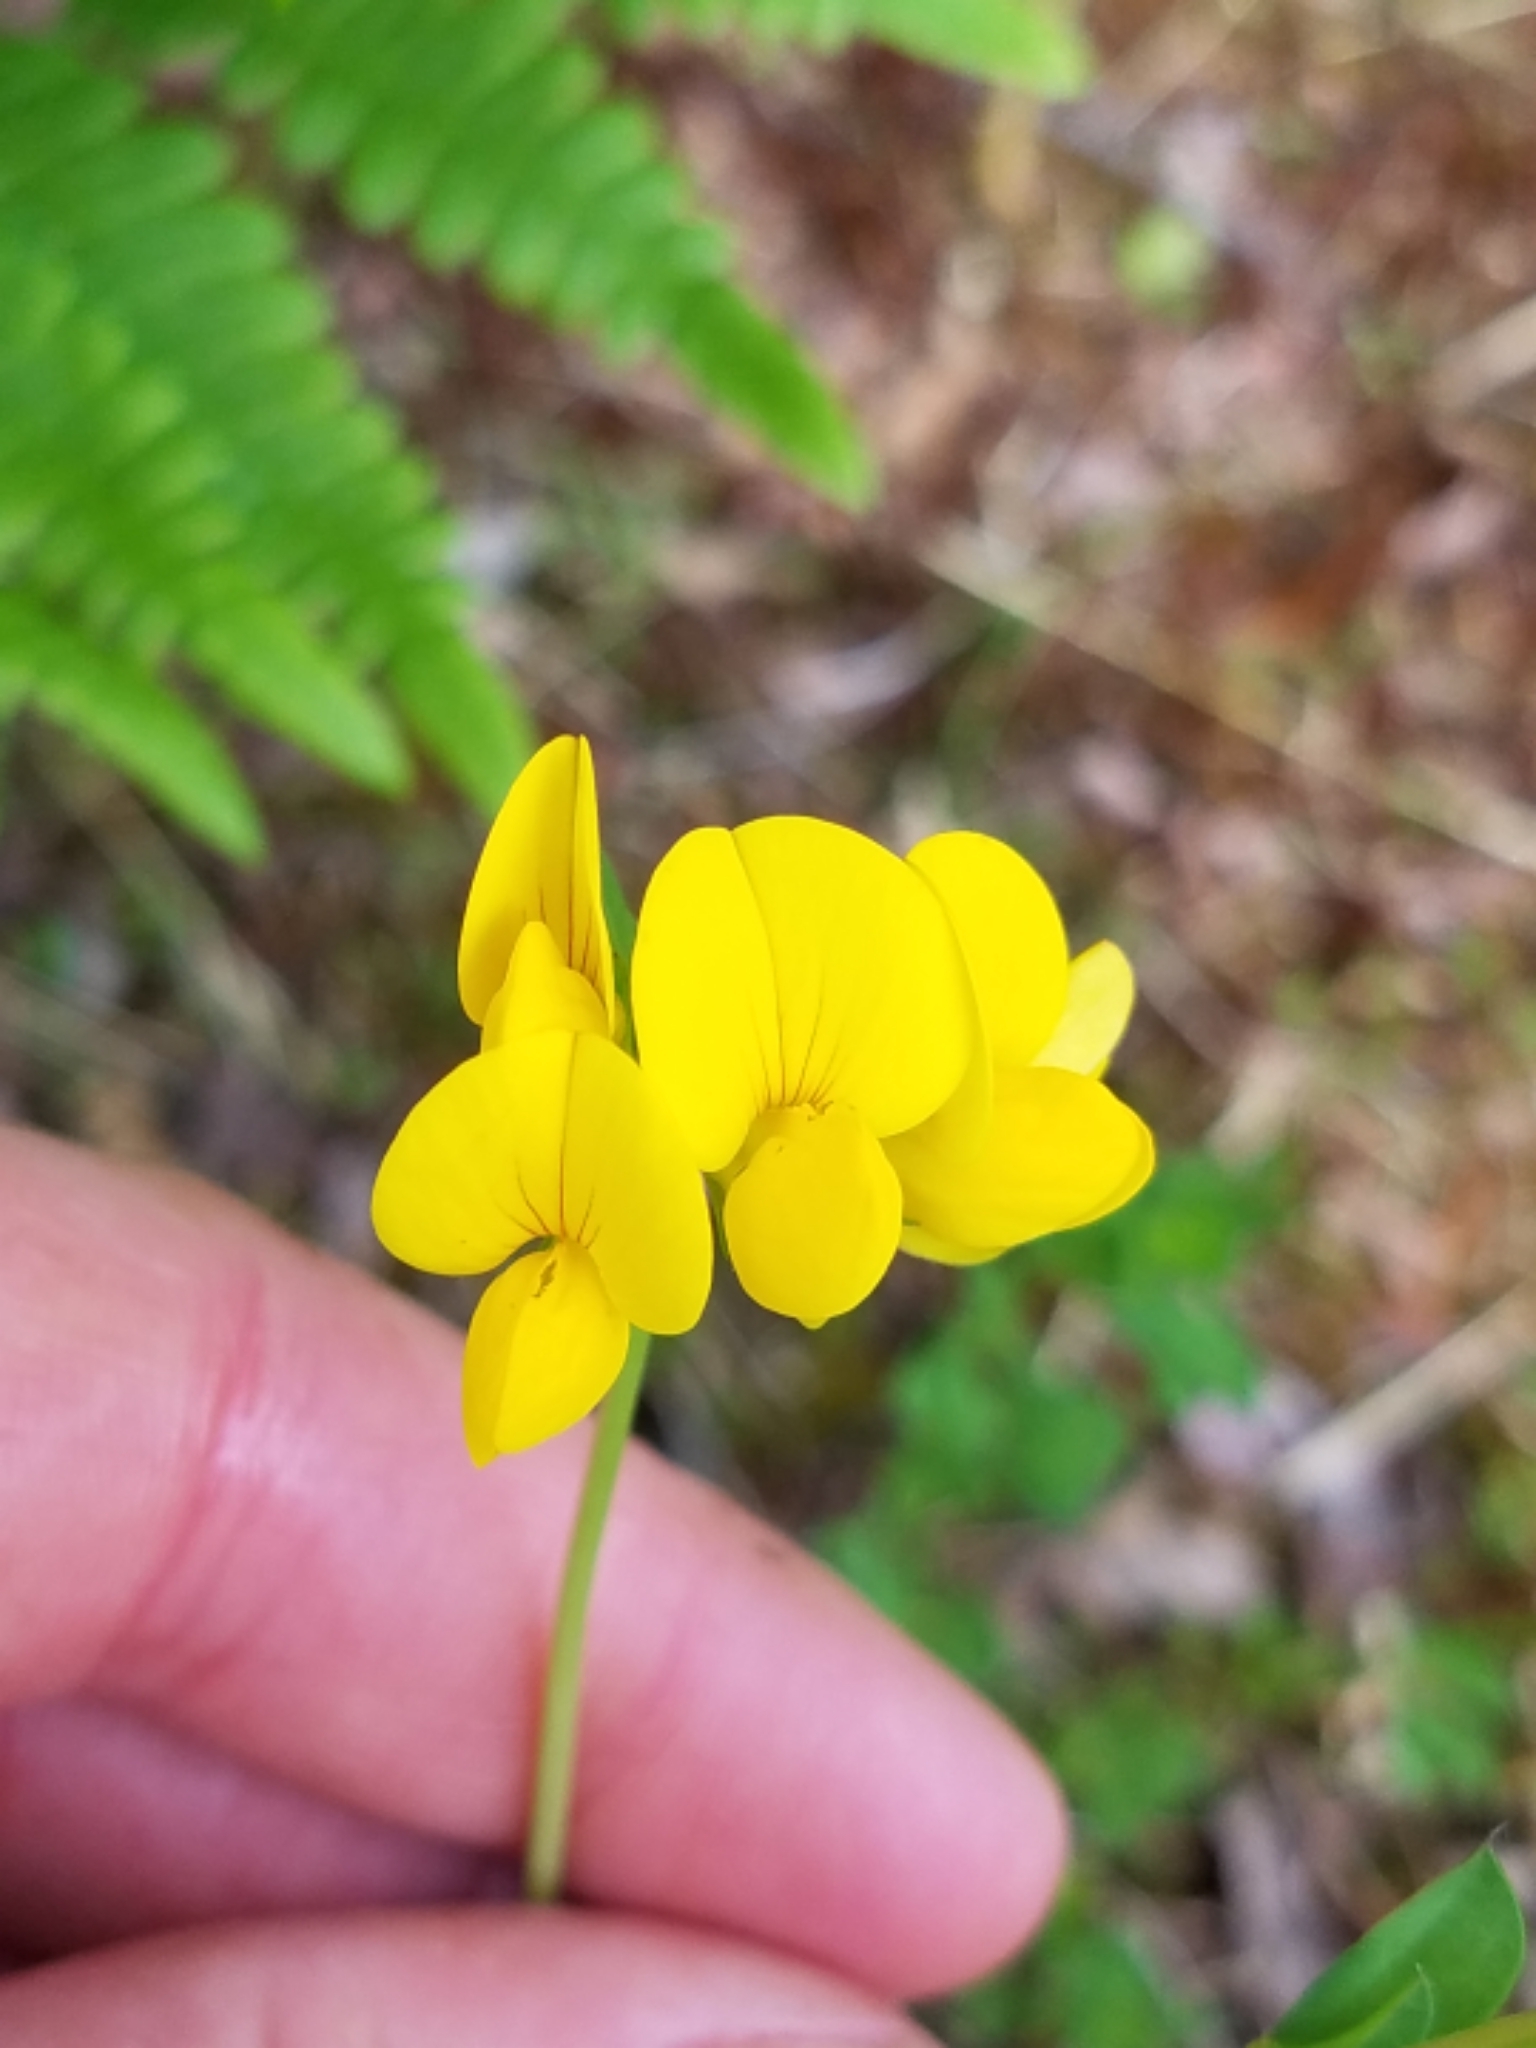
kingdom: Plantae
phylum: Tracheophyta
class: Magnoliopsida
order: Fabales
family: Fabaceae
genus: Lotus
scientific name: Lotus corniculatus
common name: Common bird's-foot-trefoil
